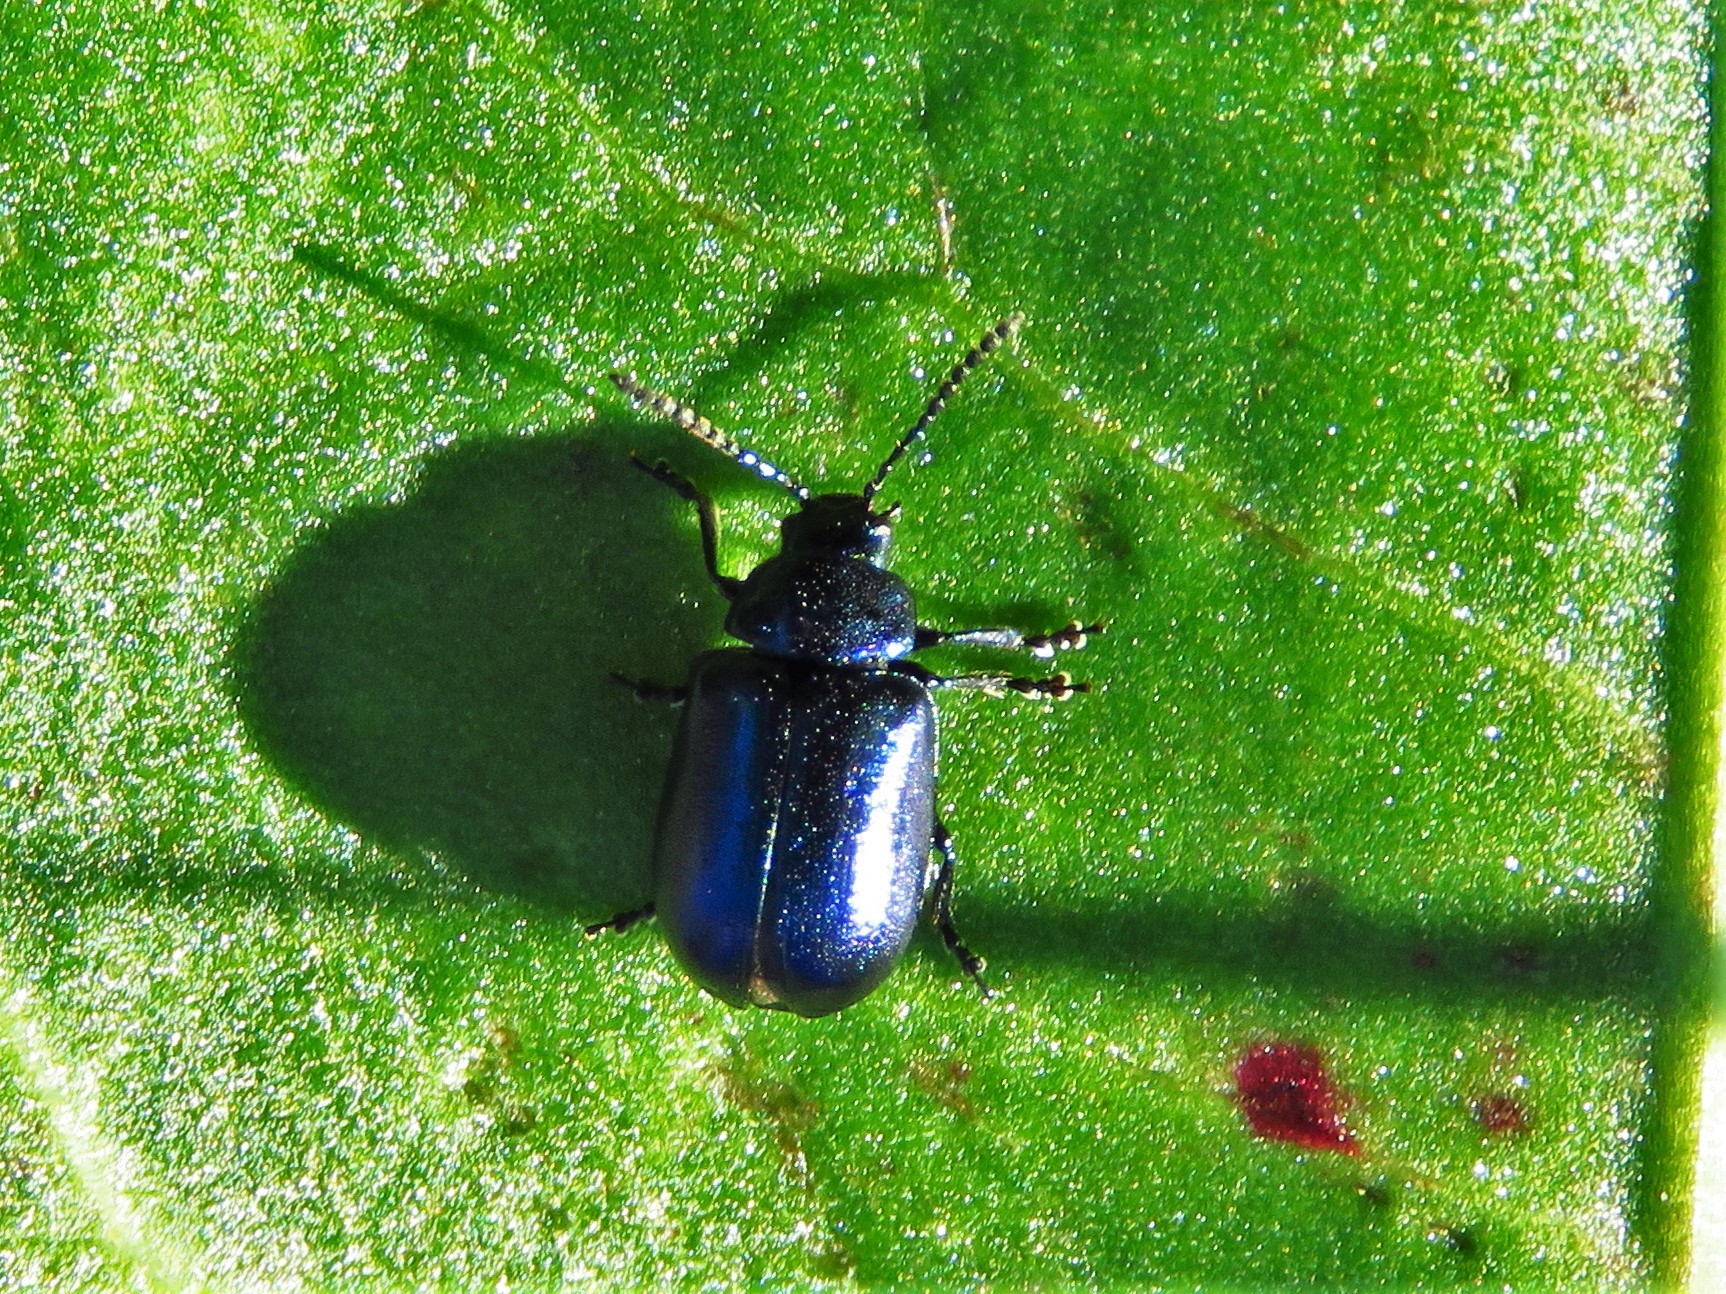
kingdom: Animalia
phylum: Arthropoda
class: Insecta
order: Coleoptera
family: Chrysomelidae
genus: Gastrophysa
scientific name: Gastrophysa cyanea
